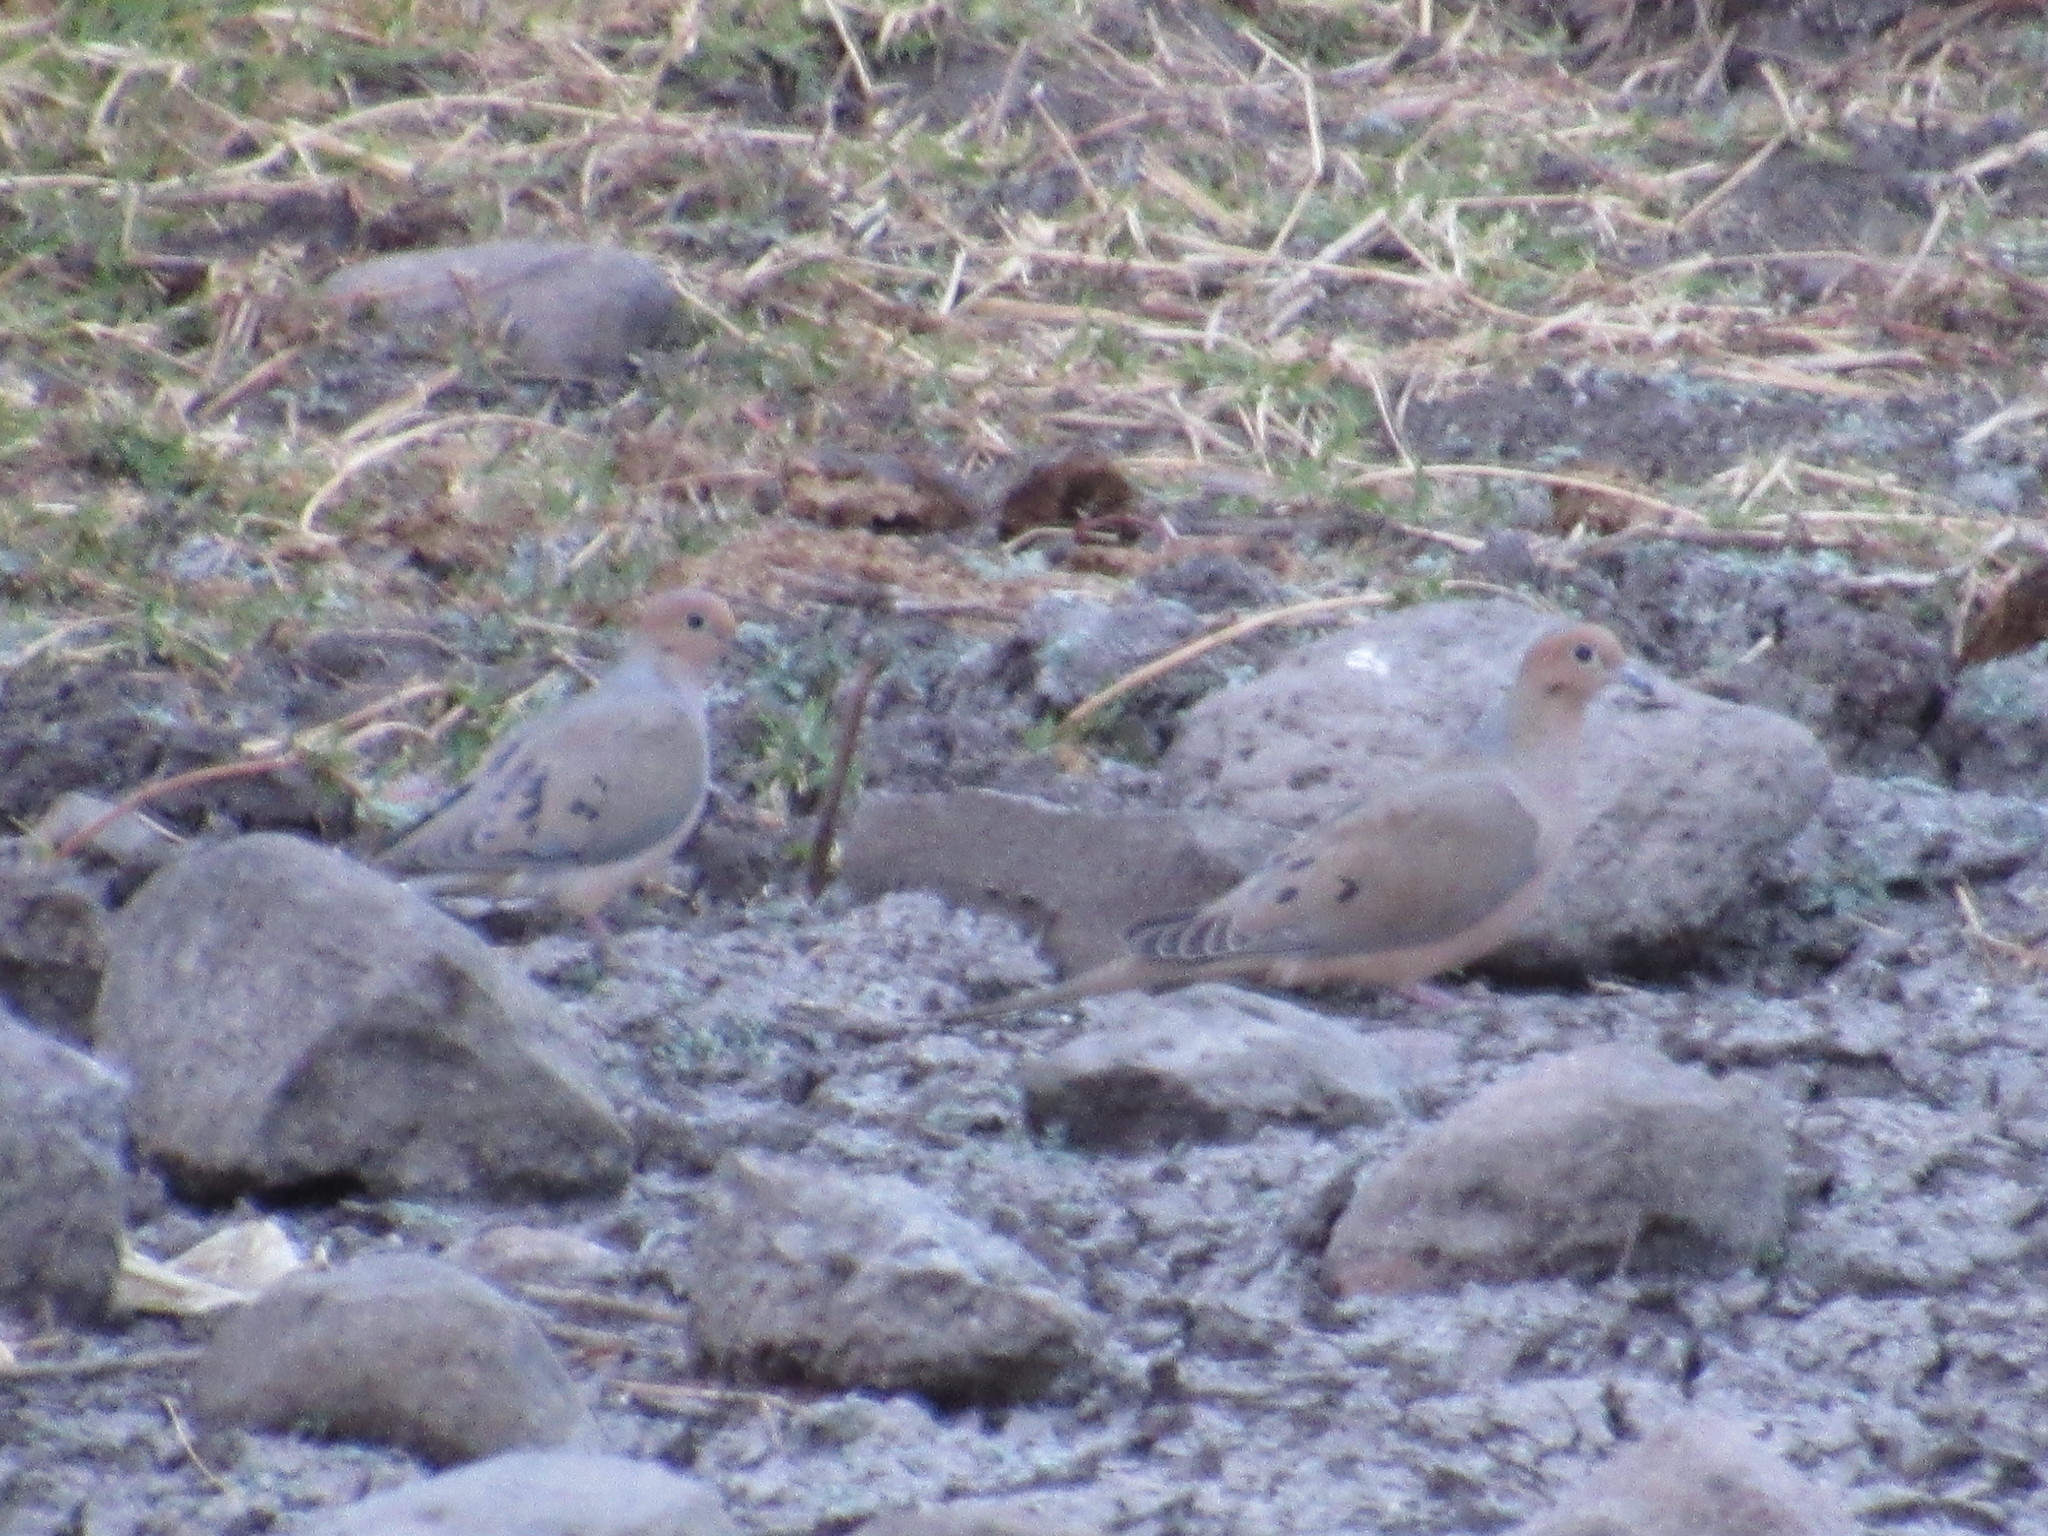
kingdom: Animalia
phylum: Chordata
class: Aves
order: Columbiformes
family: Columbidae
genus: Zenaida
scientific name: Zenaida macroura
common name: Mourning dove
